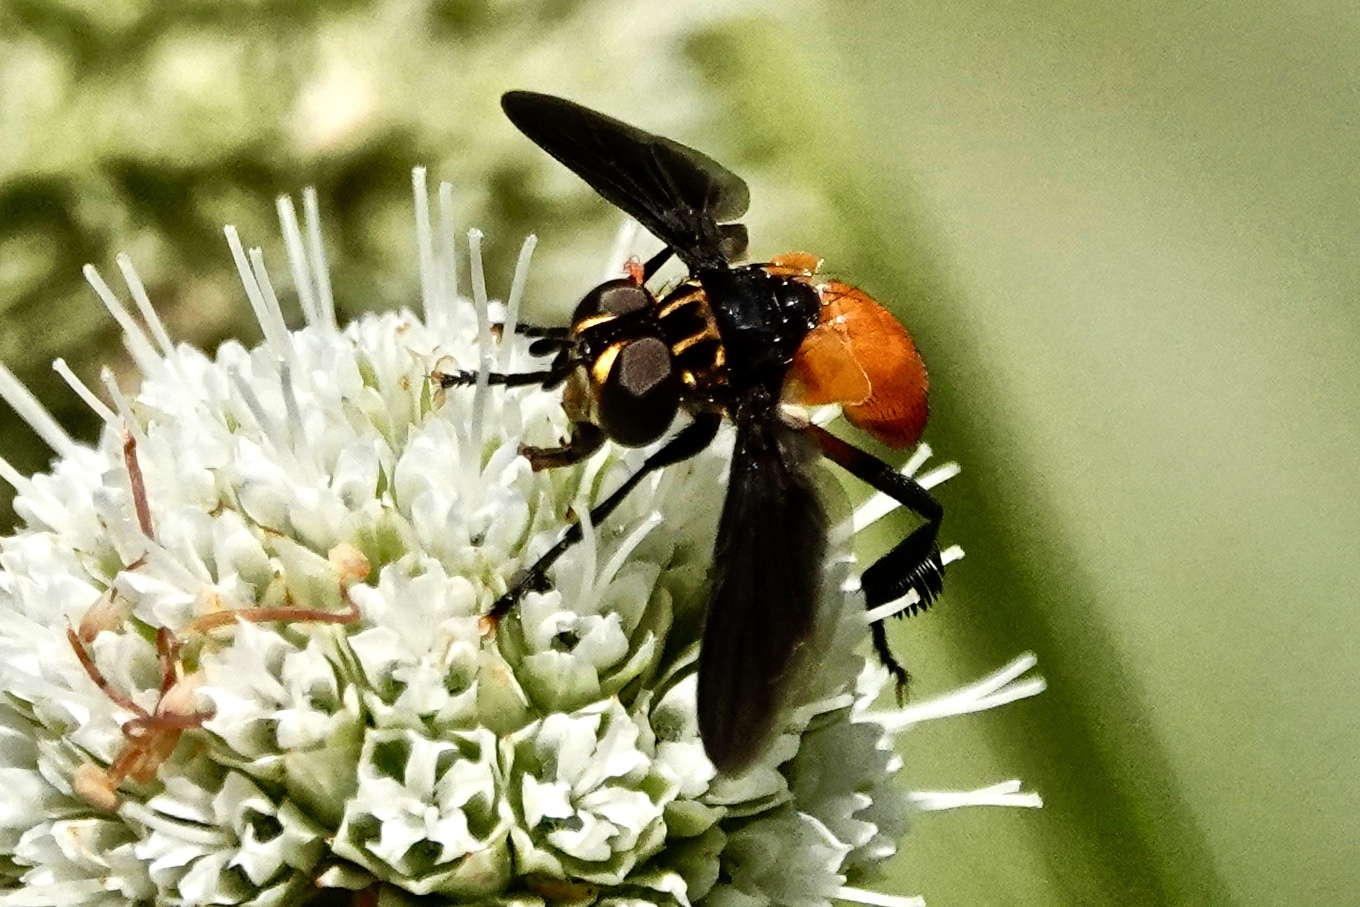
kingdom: Animalia
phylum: Arthropoda
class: Insecta
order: Diptera
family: Tachinidae
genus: Trichopoda
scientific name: Trichopoda pennipes
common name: Tachinid fly
